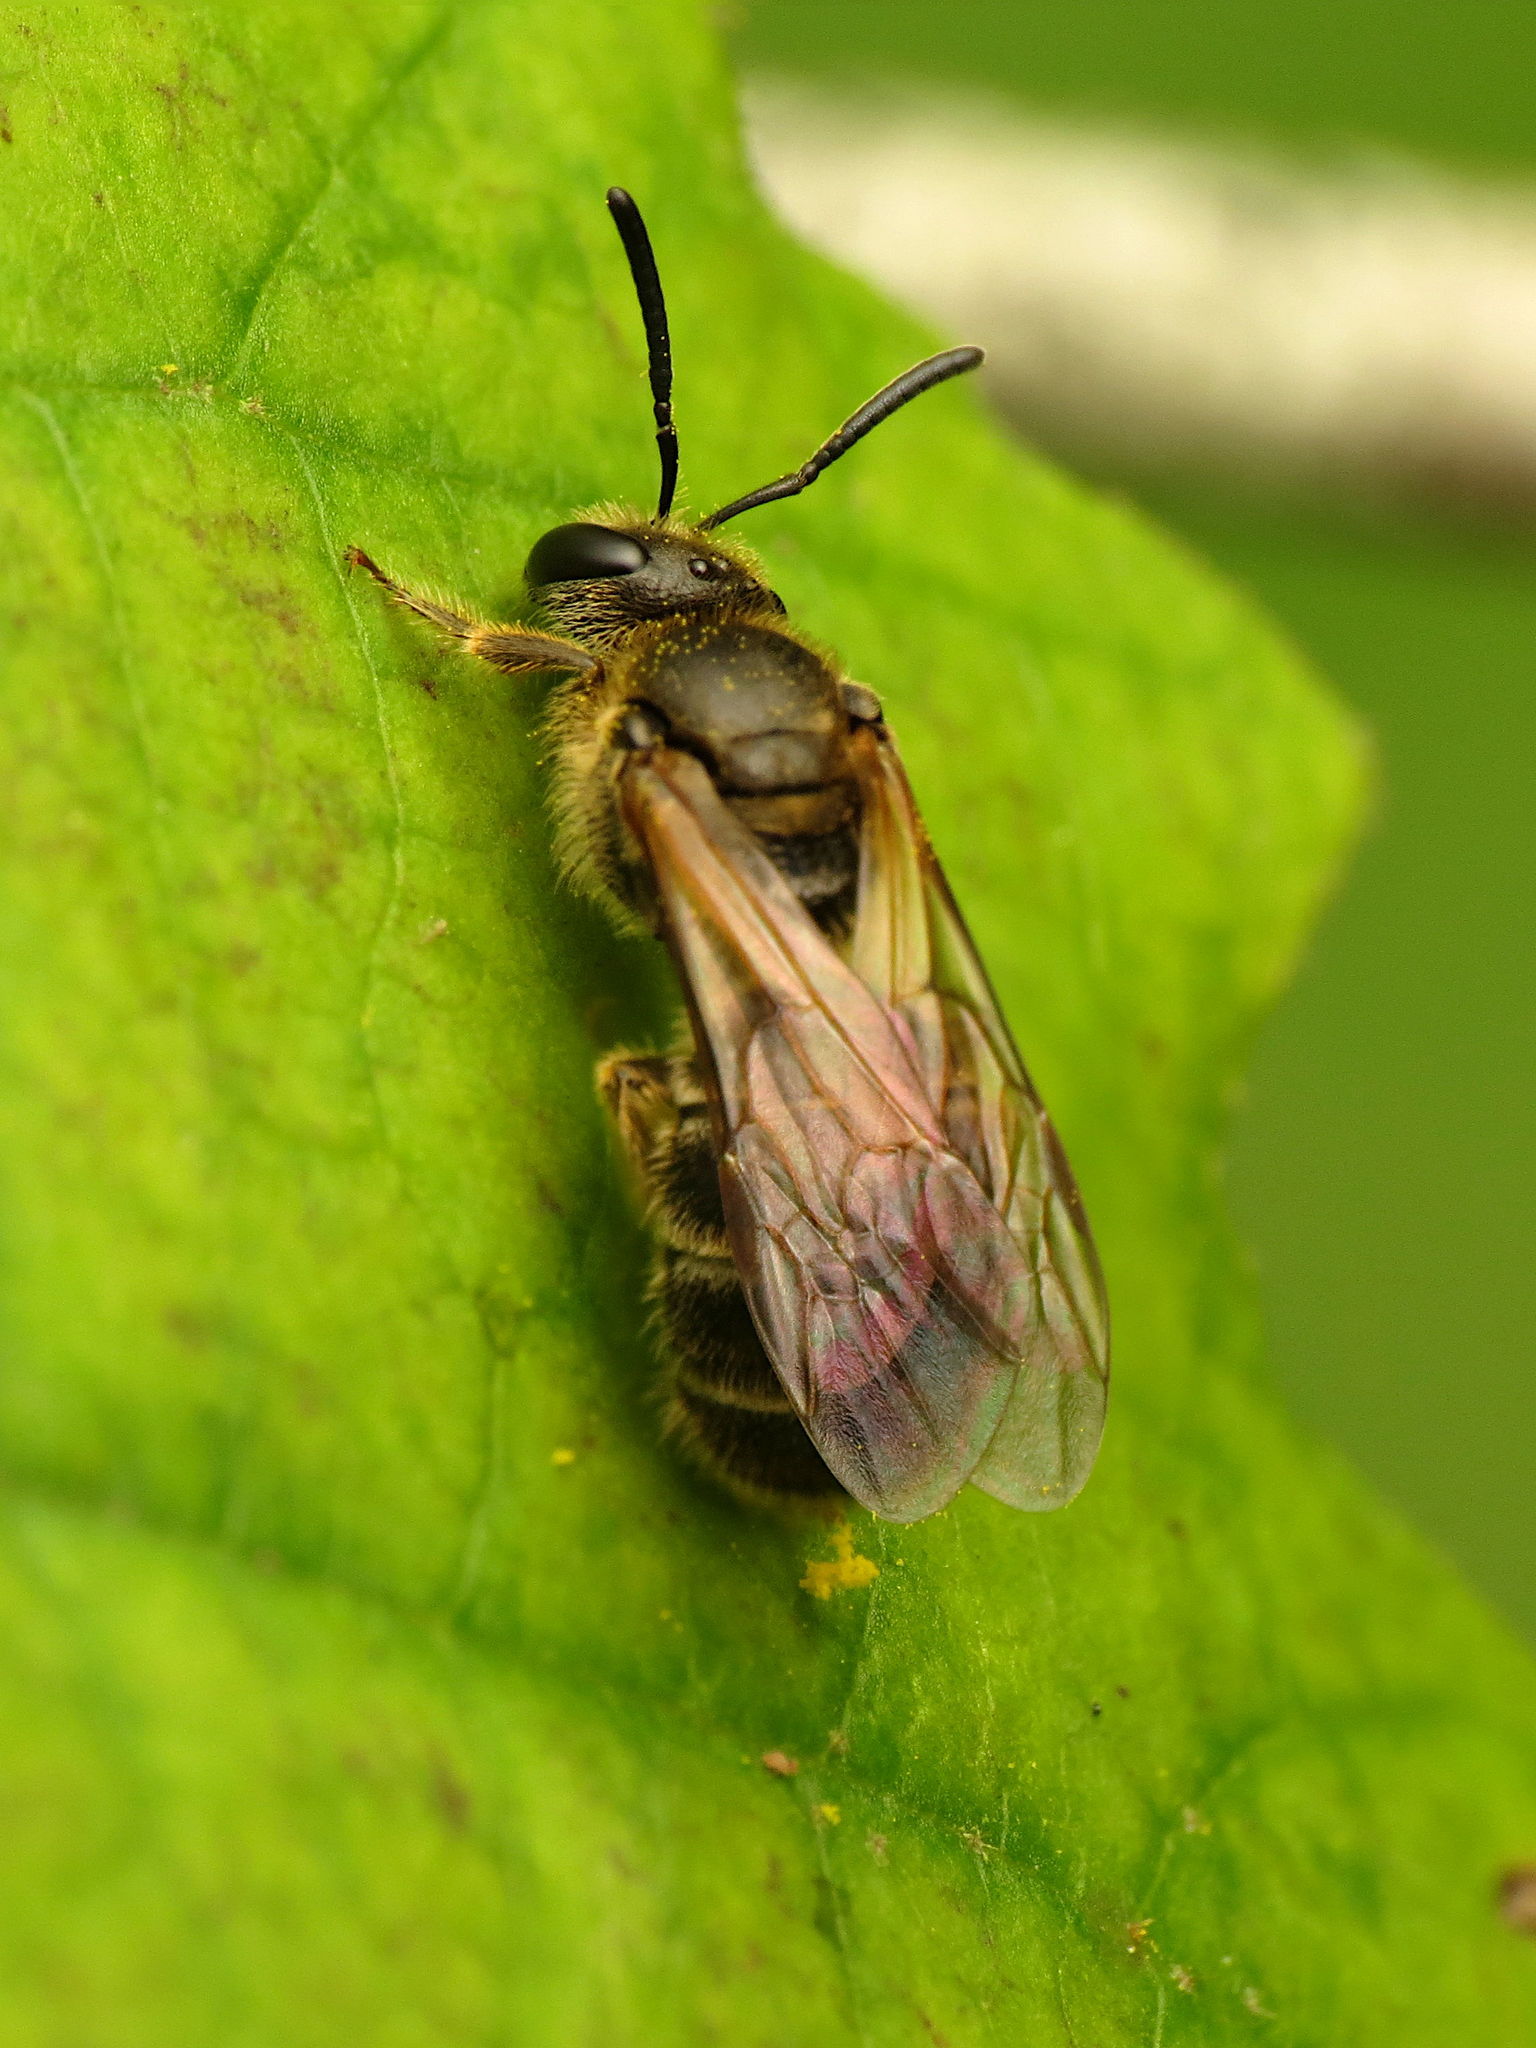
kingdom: Animalia
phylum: Arthropoda
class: Insecta
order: Hymenoptera
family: Halictidae
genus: Lasioglossum
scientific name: Lasioglossum quebecense
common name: Quebec sweat bee
